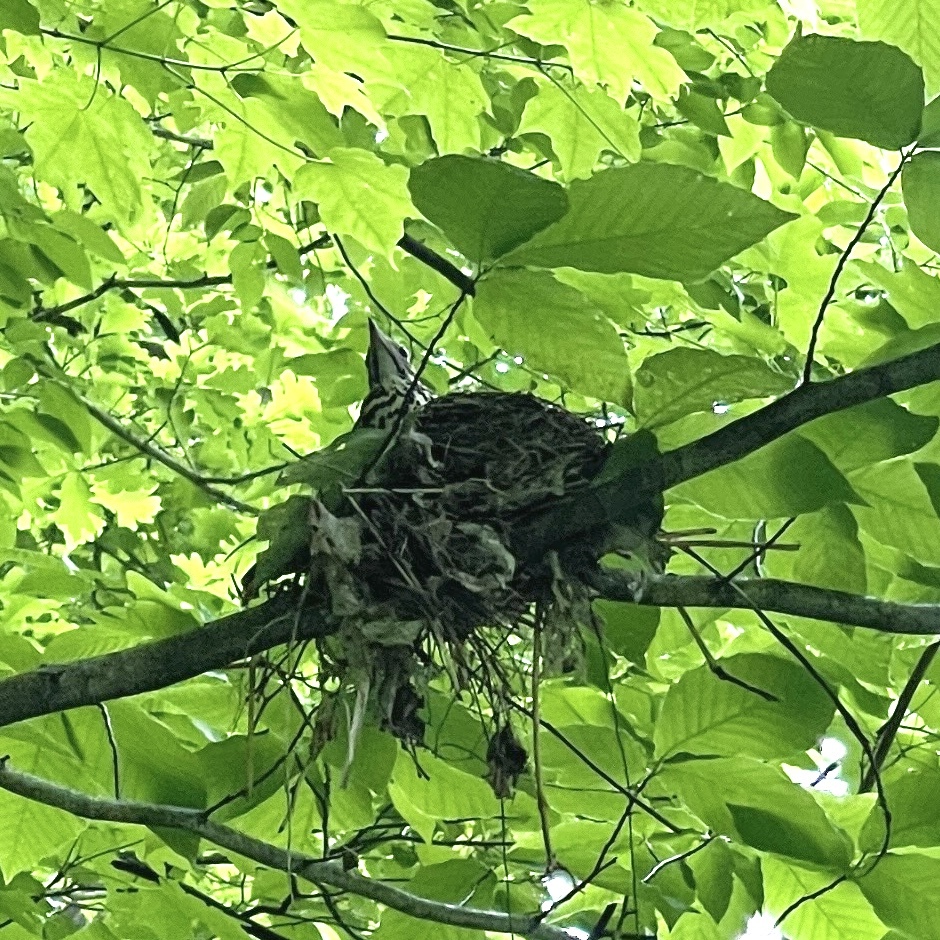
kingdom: Animalia
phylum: Chordata
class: Aves
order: Passeriformes
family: Turdidae
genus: Hylocichla
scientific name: Hylocichla mustelina
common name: Wood thrush
